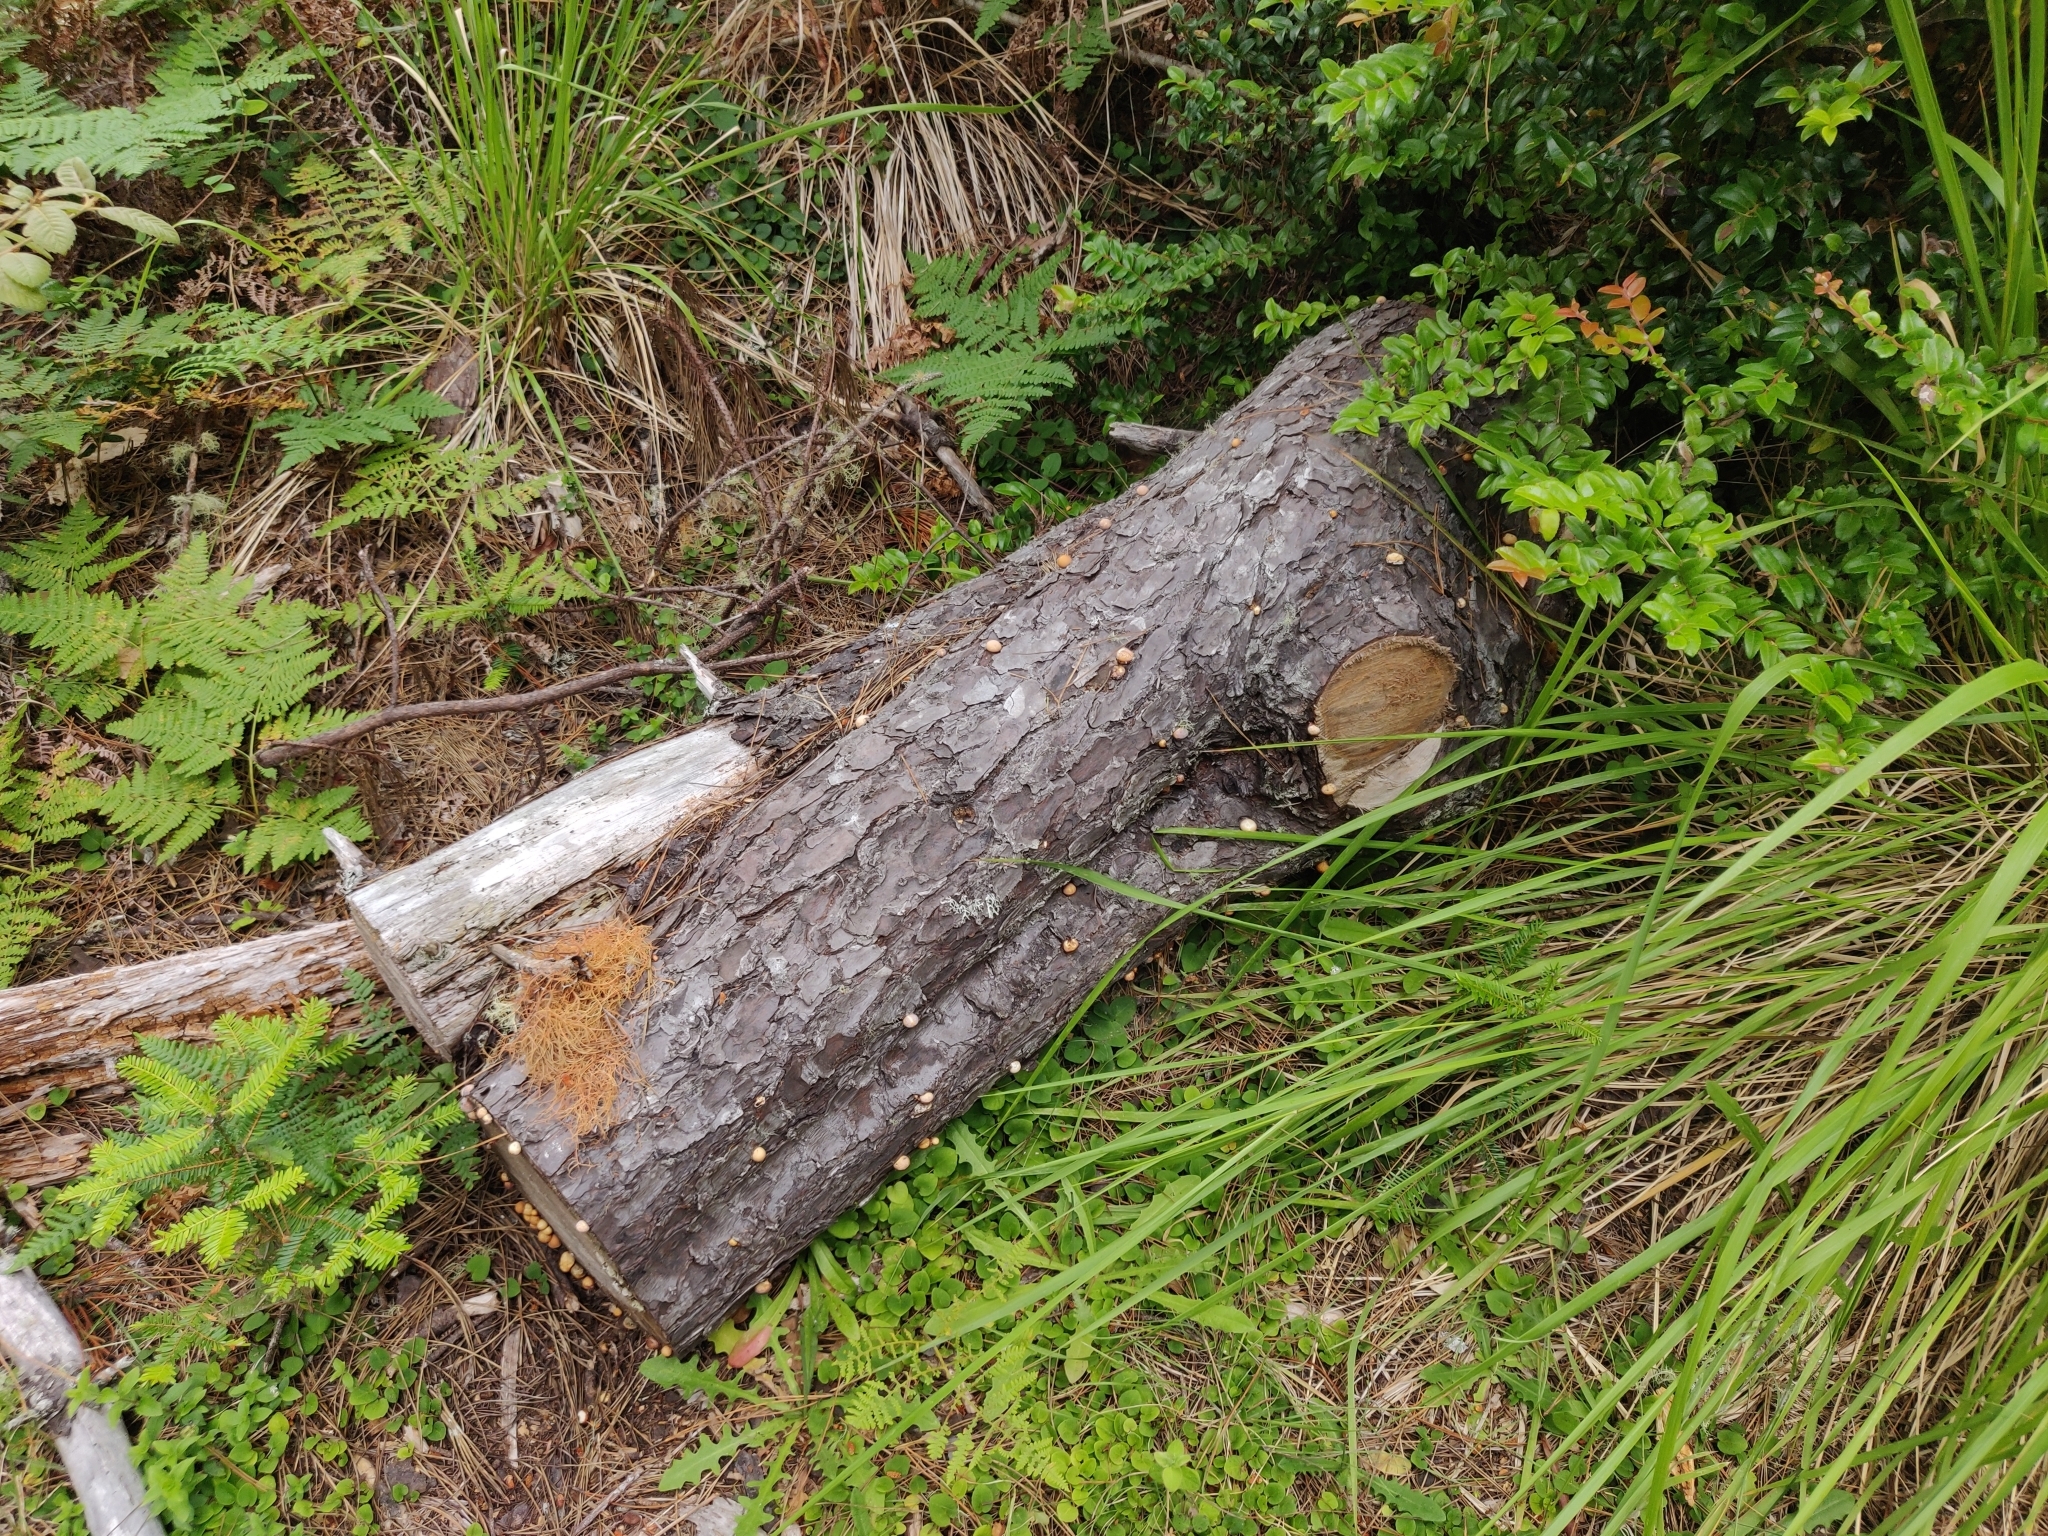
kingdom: Fungi
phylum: Basidiomycota
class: Agaricomycetes
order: Polyporales
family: Polyporaceae
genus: Cryptoporus
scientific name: Cryptoporus volvatus
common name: Veiled polypore
